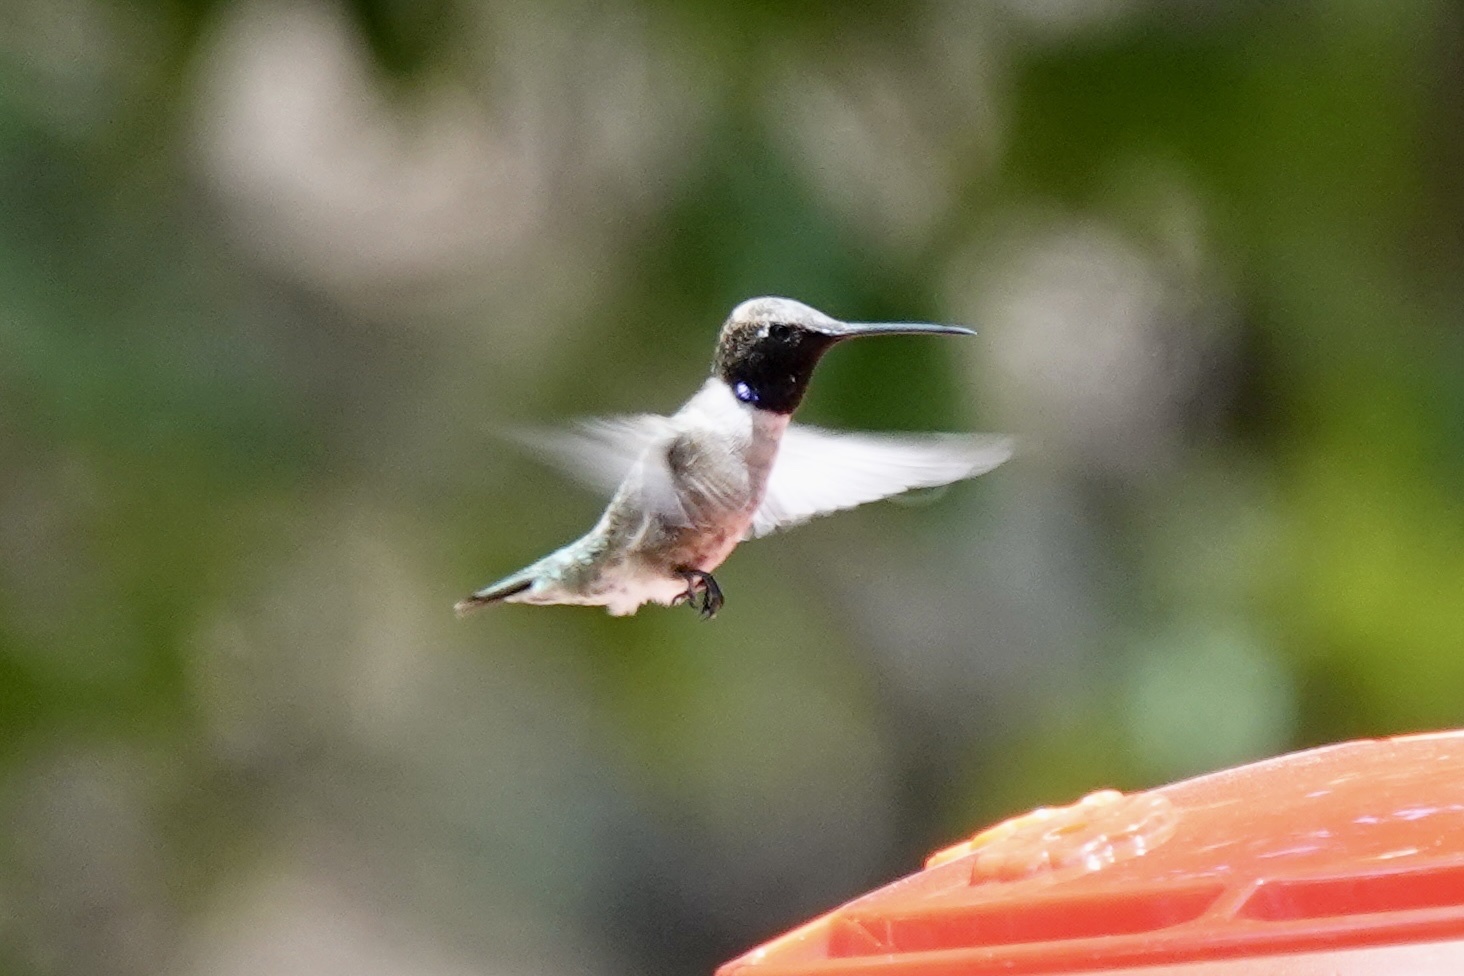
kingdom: Animalia
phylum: Chordata
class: Aves
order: Apodiformes
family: Trochilidae
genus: Archilochus
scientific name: Archilochus alexandri
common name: Black-chinned hummingbird
